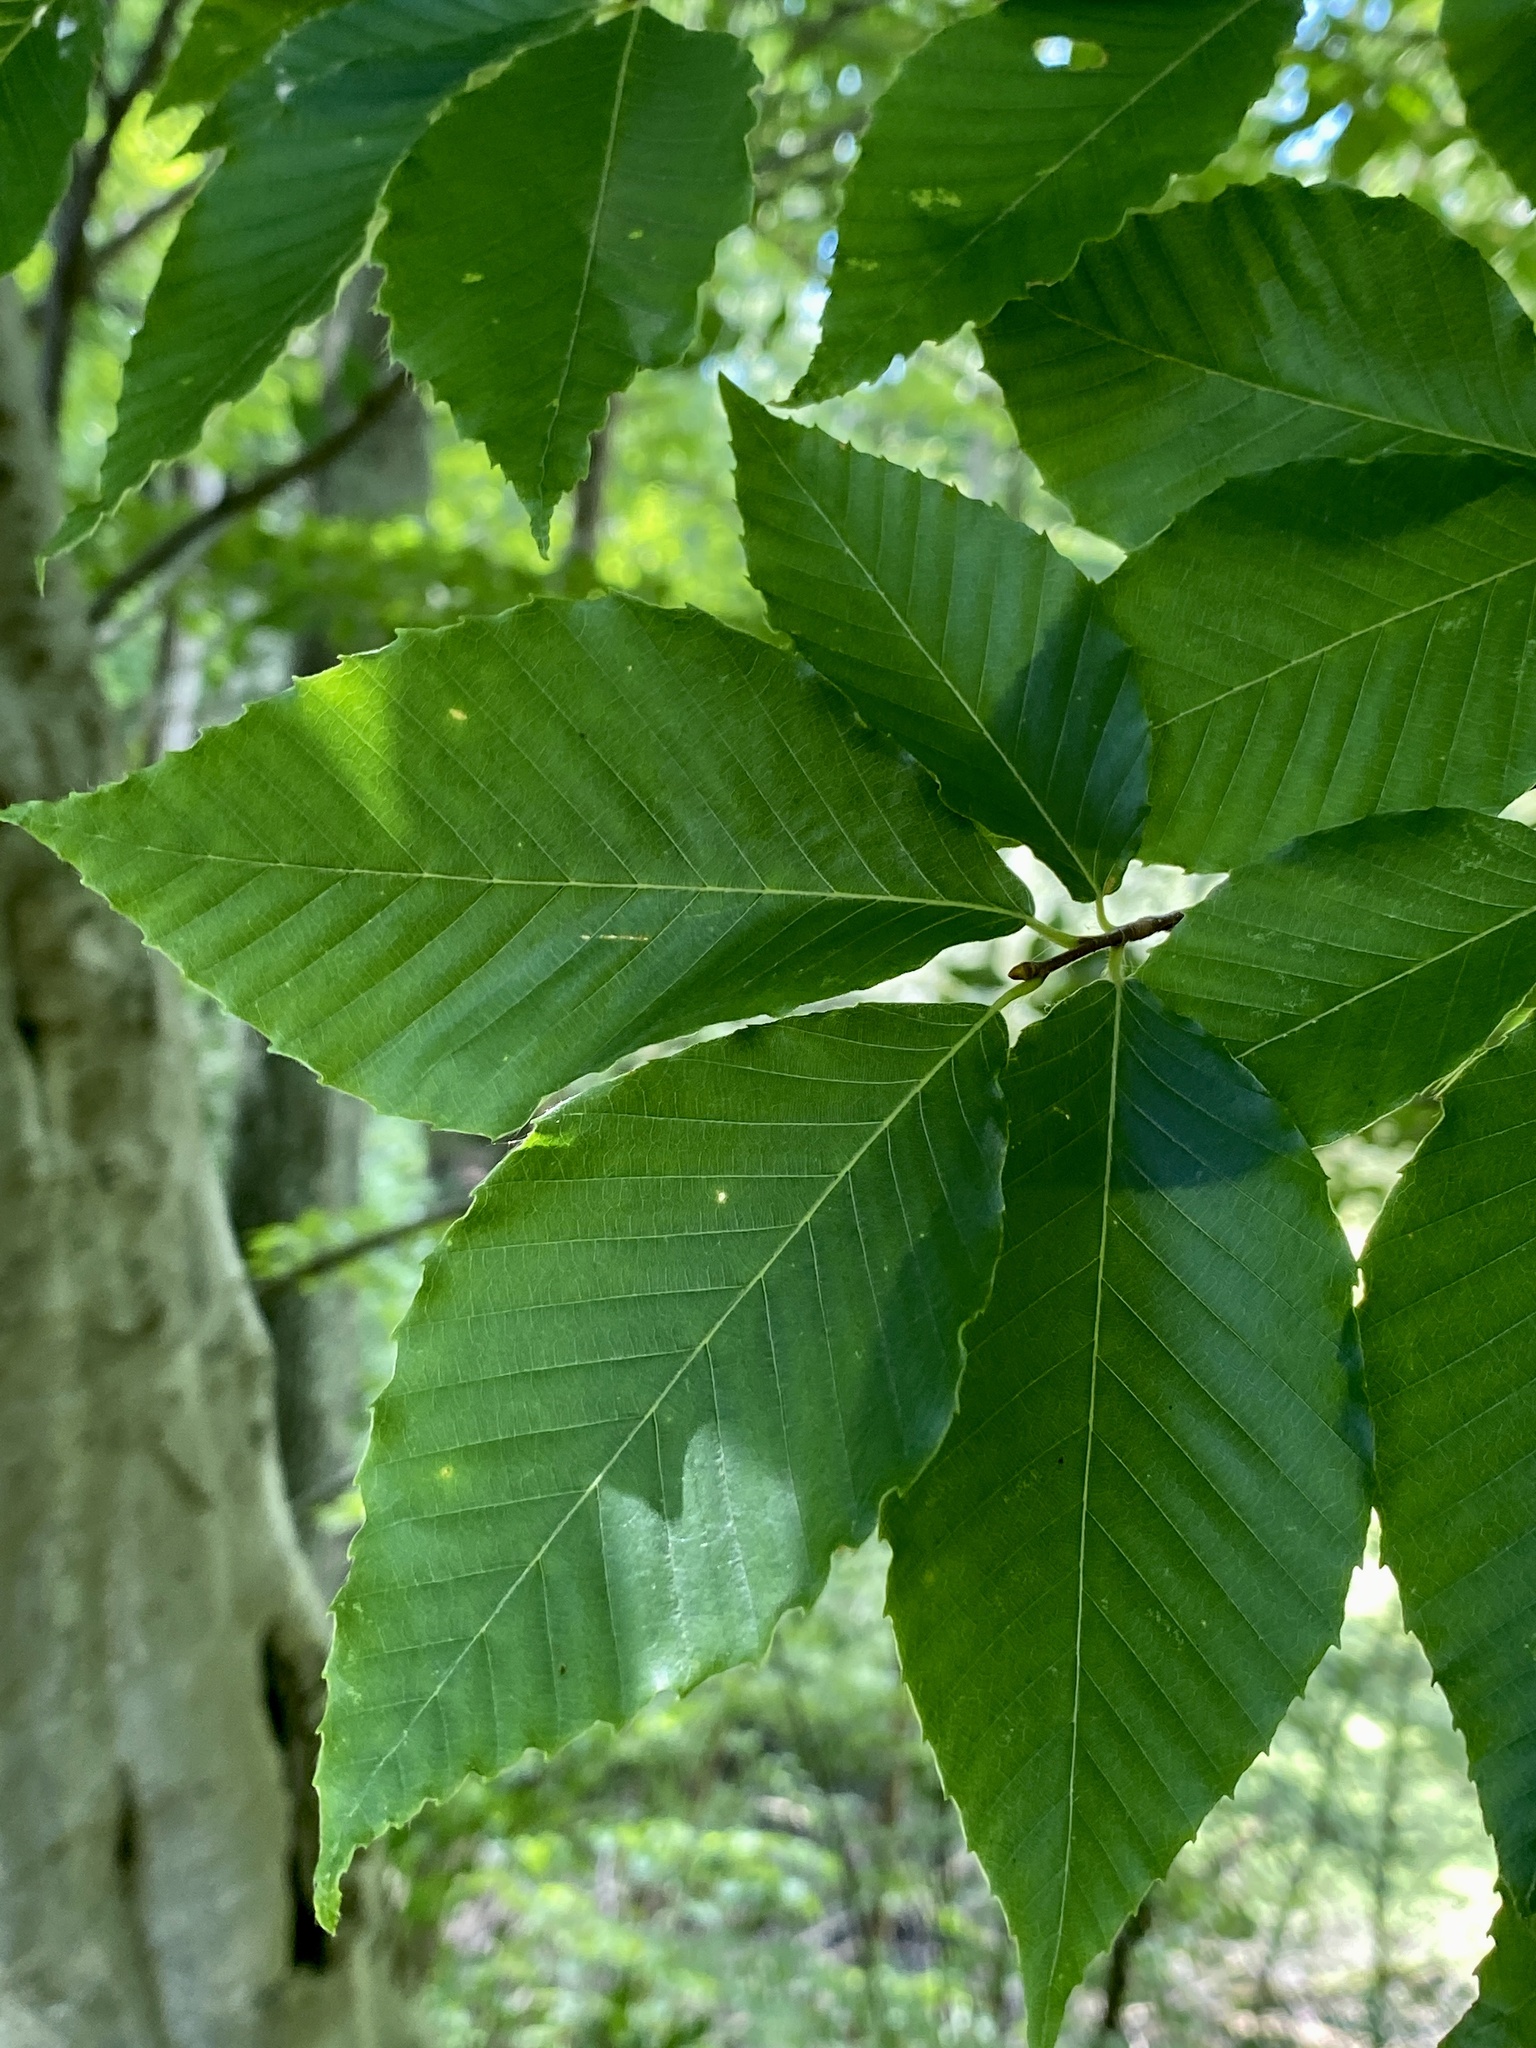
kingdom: Plantae
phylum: Tracheophyta
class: Magnoliopsida
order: Fagales
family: Fagaceae
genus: Fagus
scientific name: Fagus grandifolia
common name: American beech
